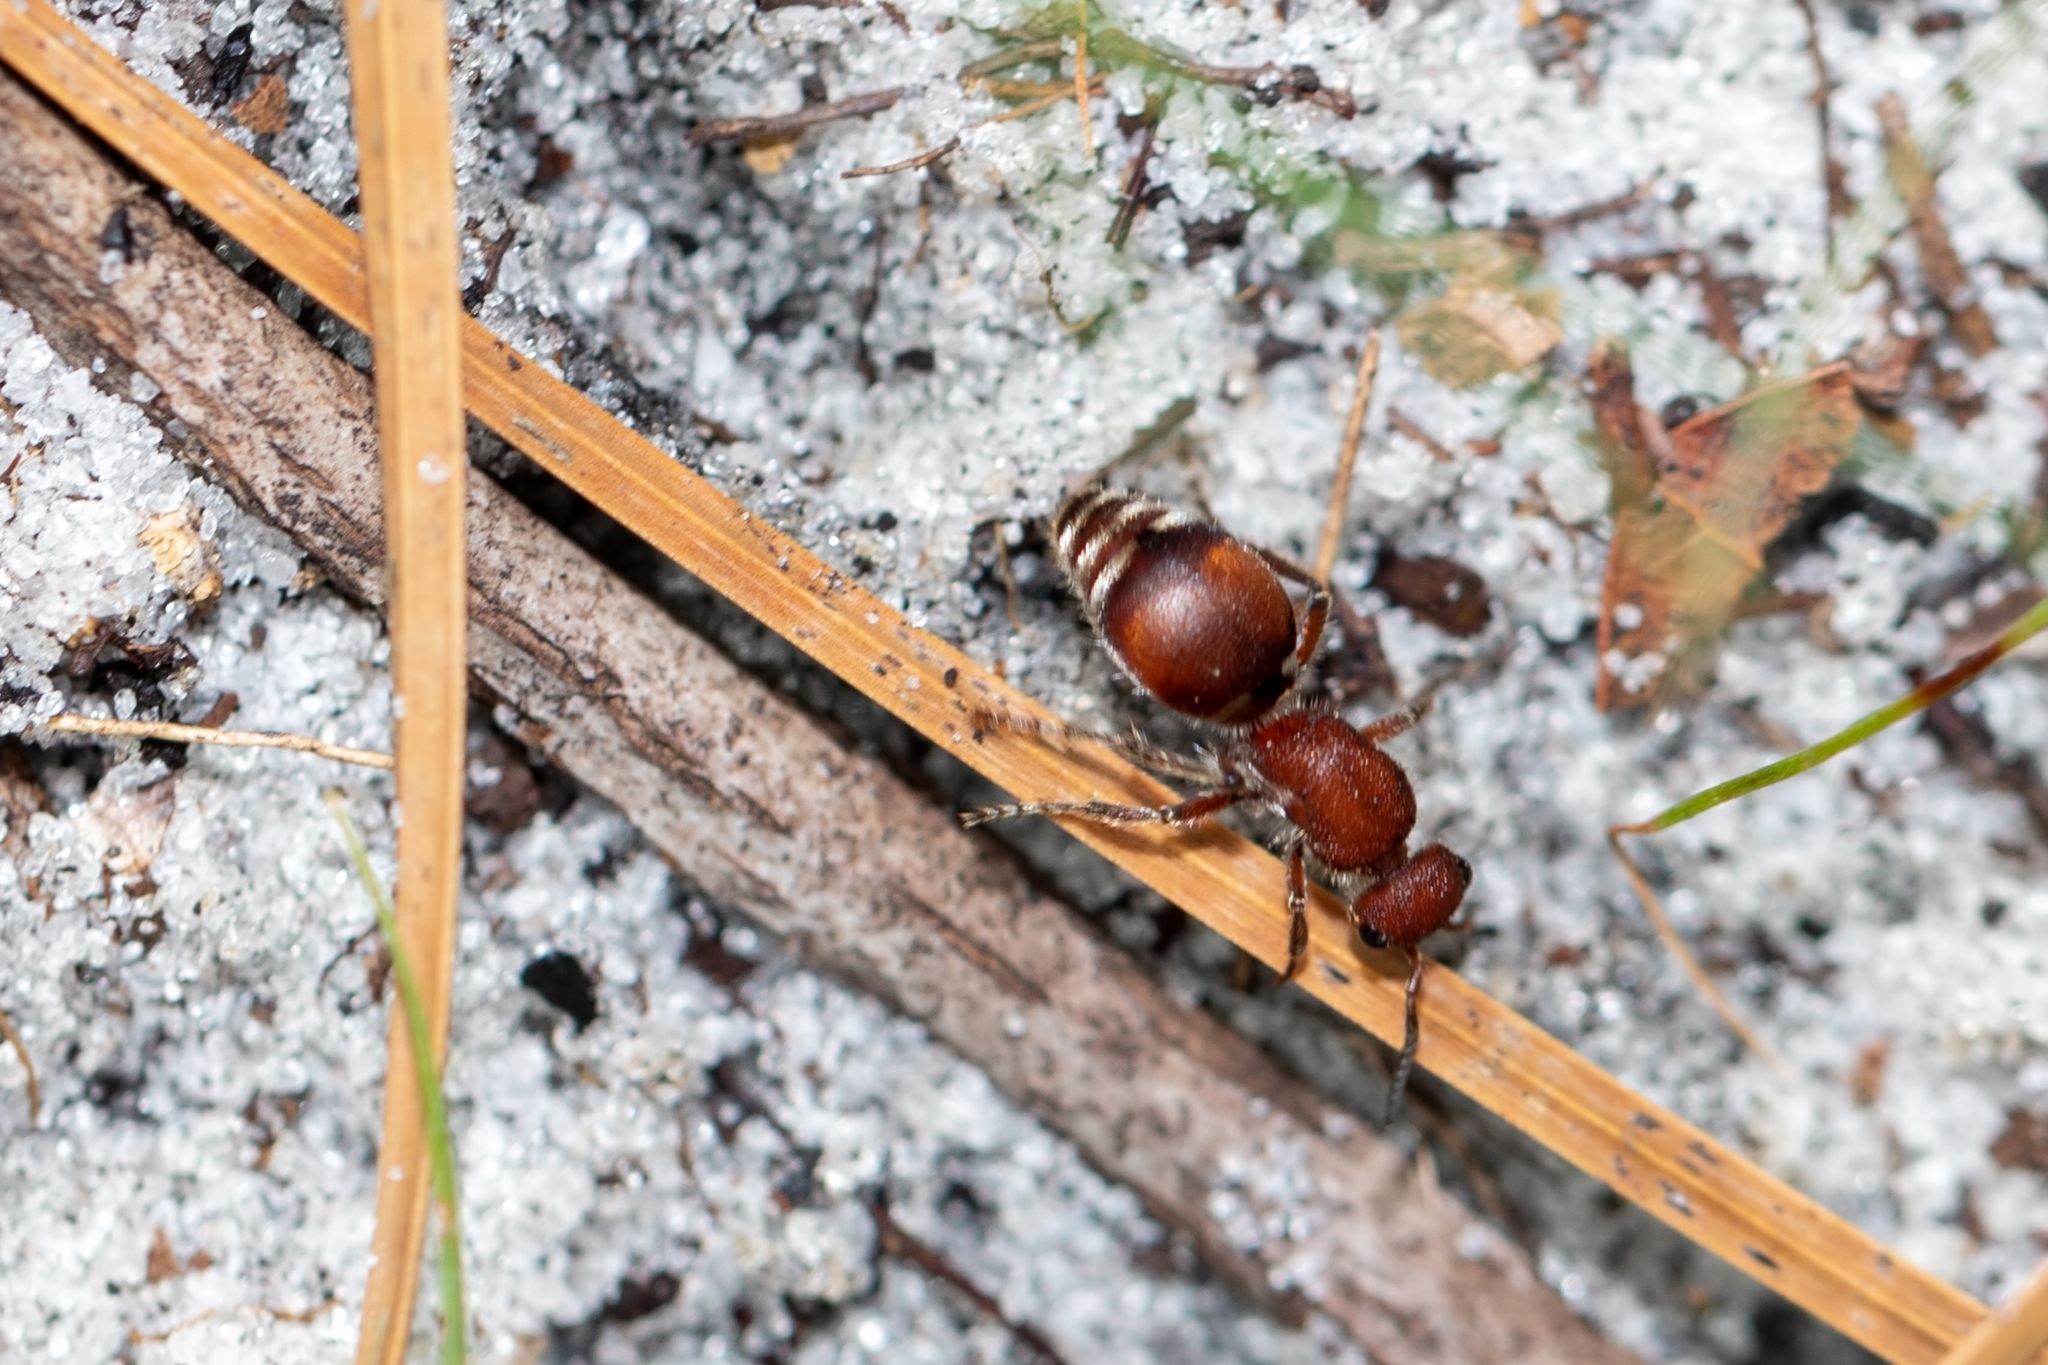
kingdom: Animalia
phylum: Arthropoda
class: Insecta
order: Hymenoptera
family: Mutillidae
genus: Pseudomethoca
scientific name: Pseudomethoca sanbornii
